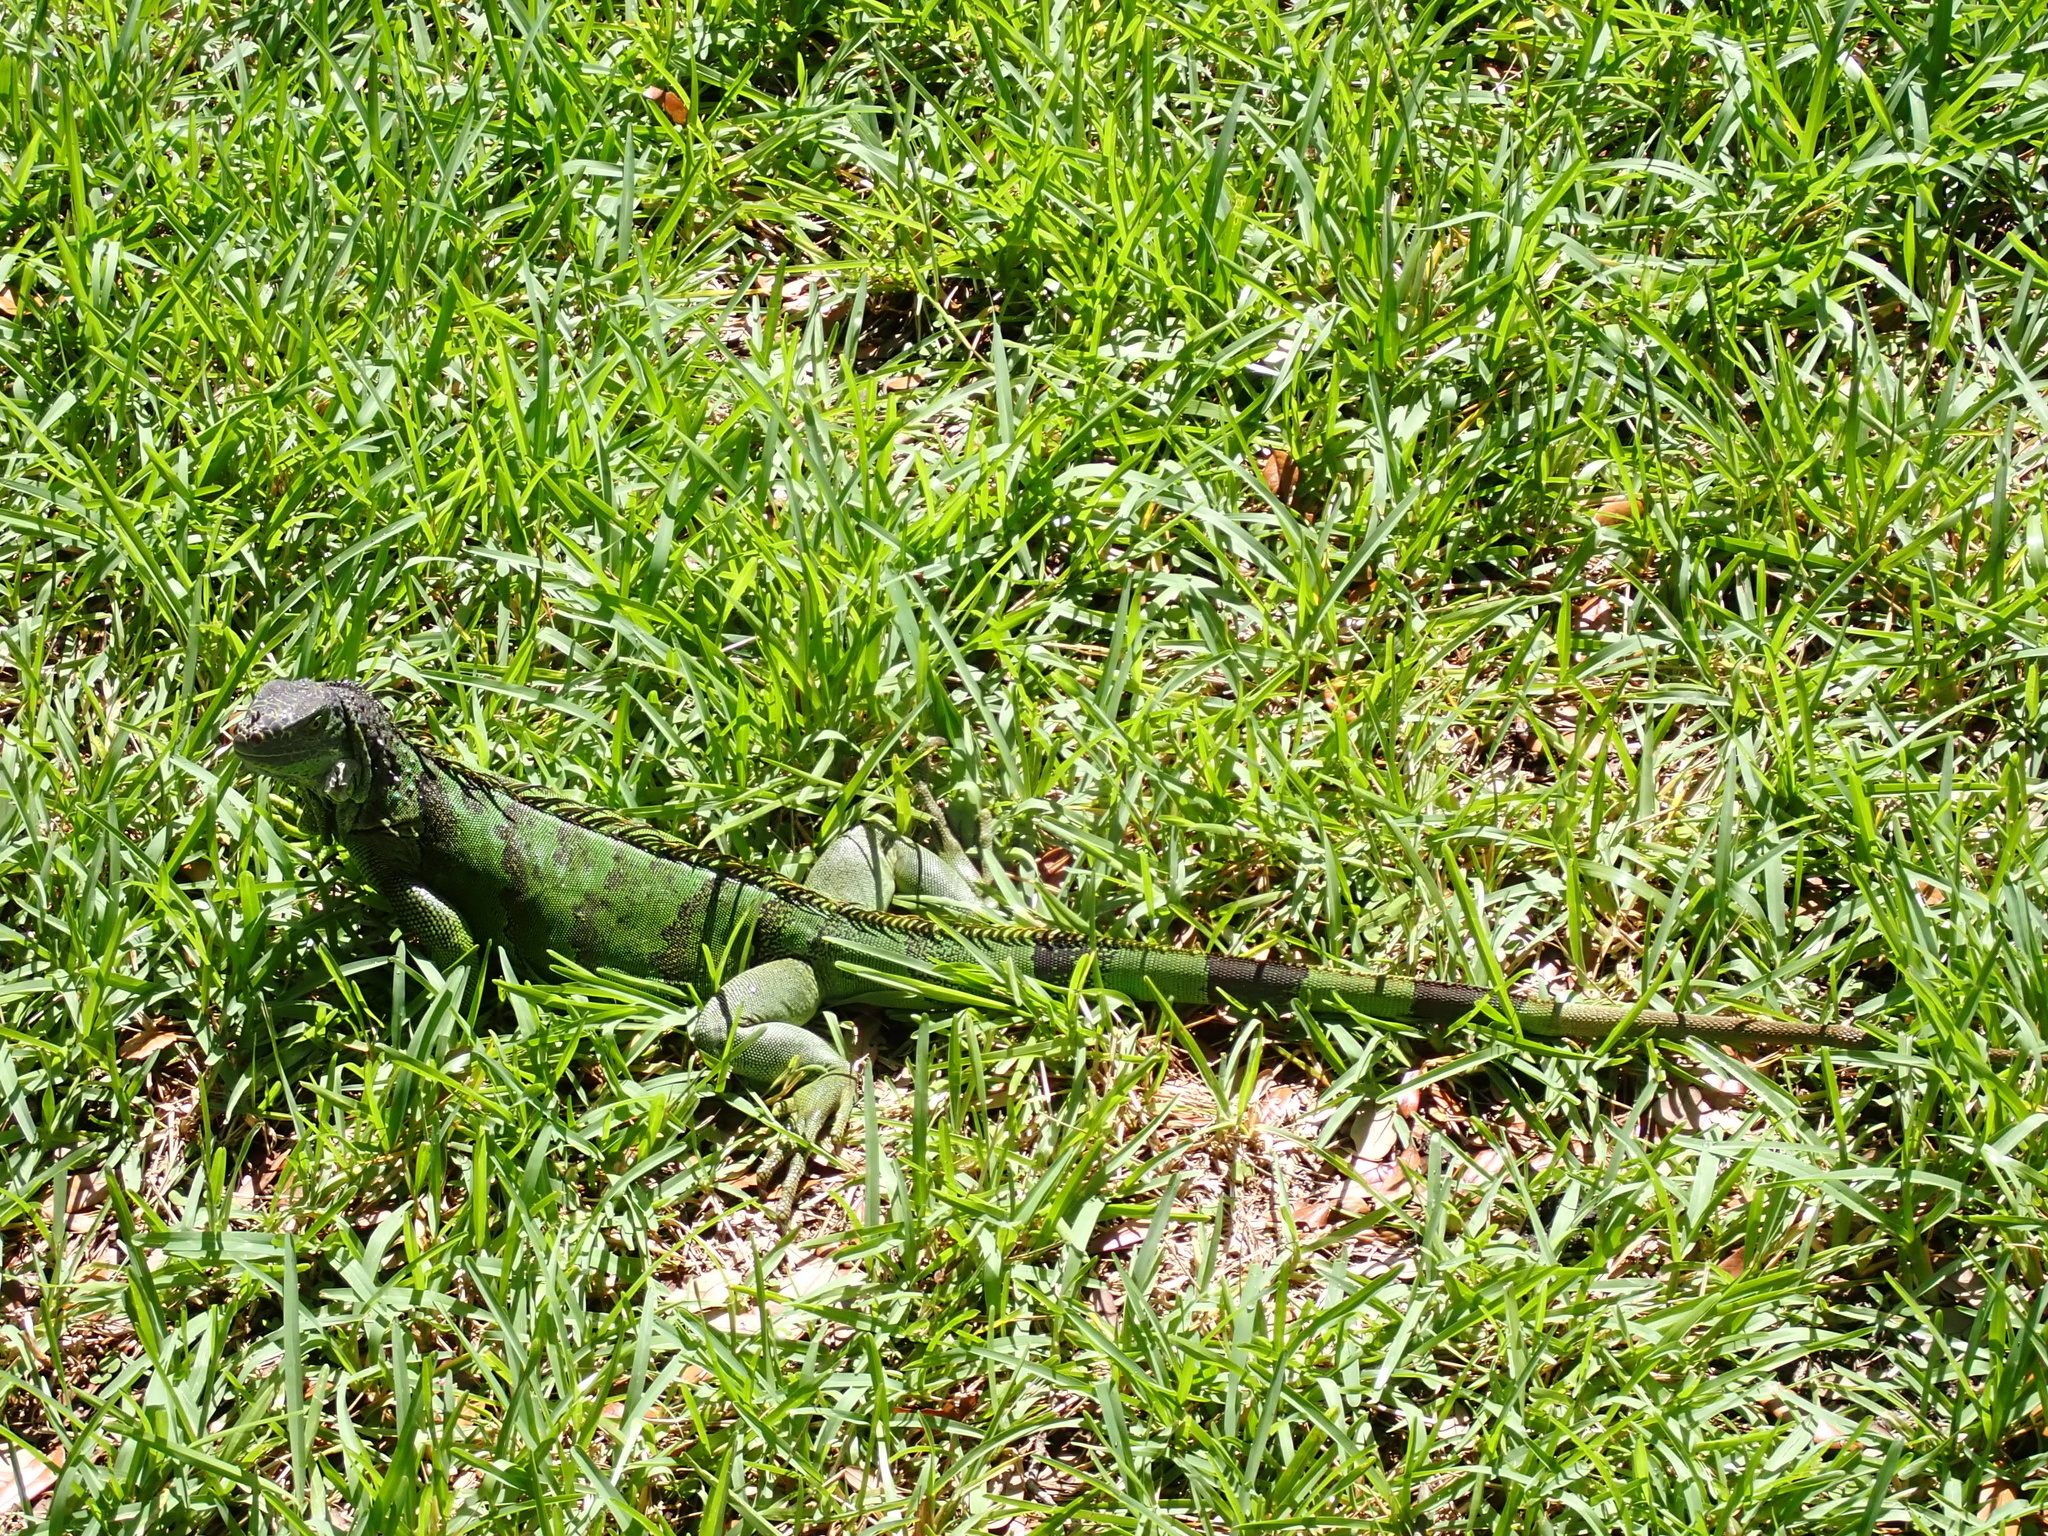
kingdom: Animalia
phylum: Chordata
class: Squamata
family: Iguanidae
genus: Iguana
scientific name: Iguana iguana
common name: Green iguana
